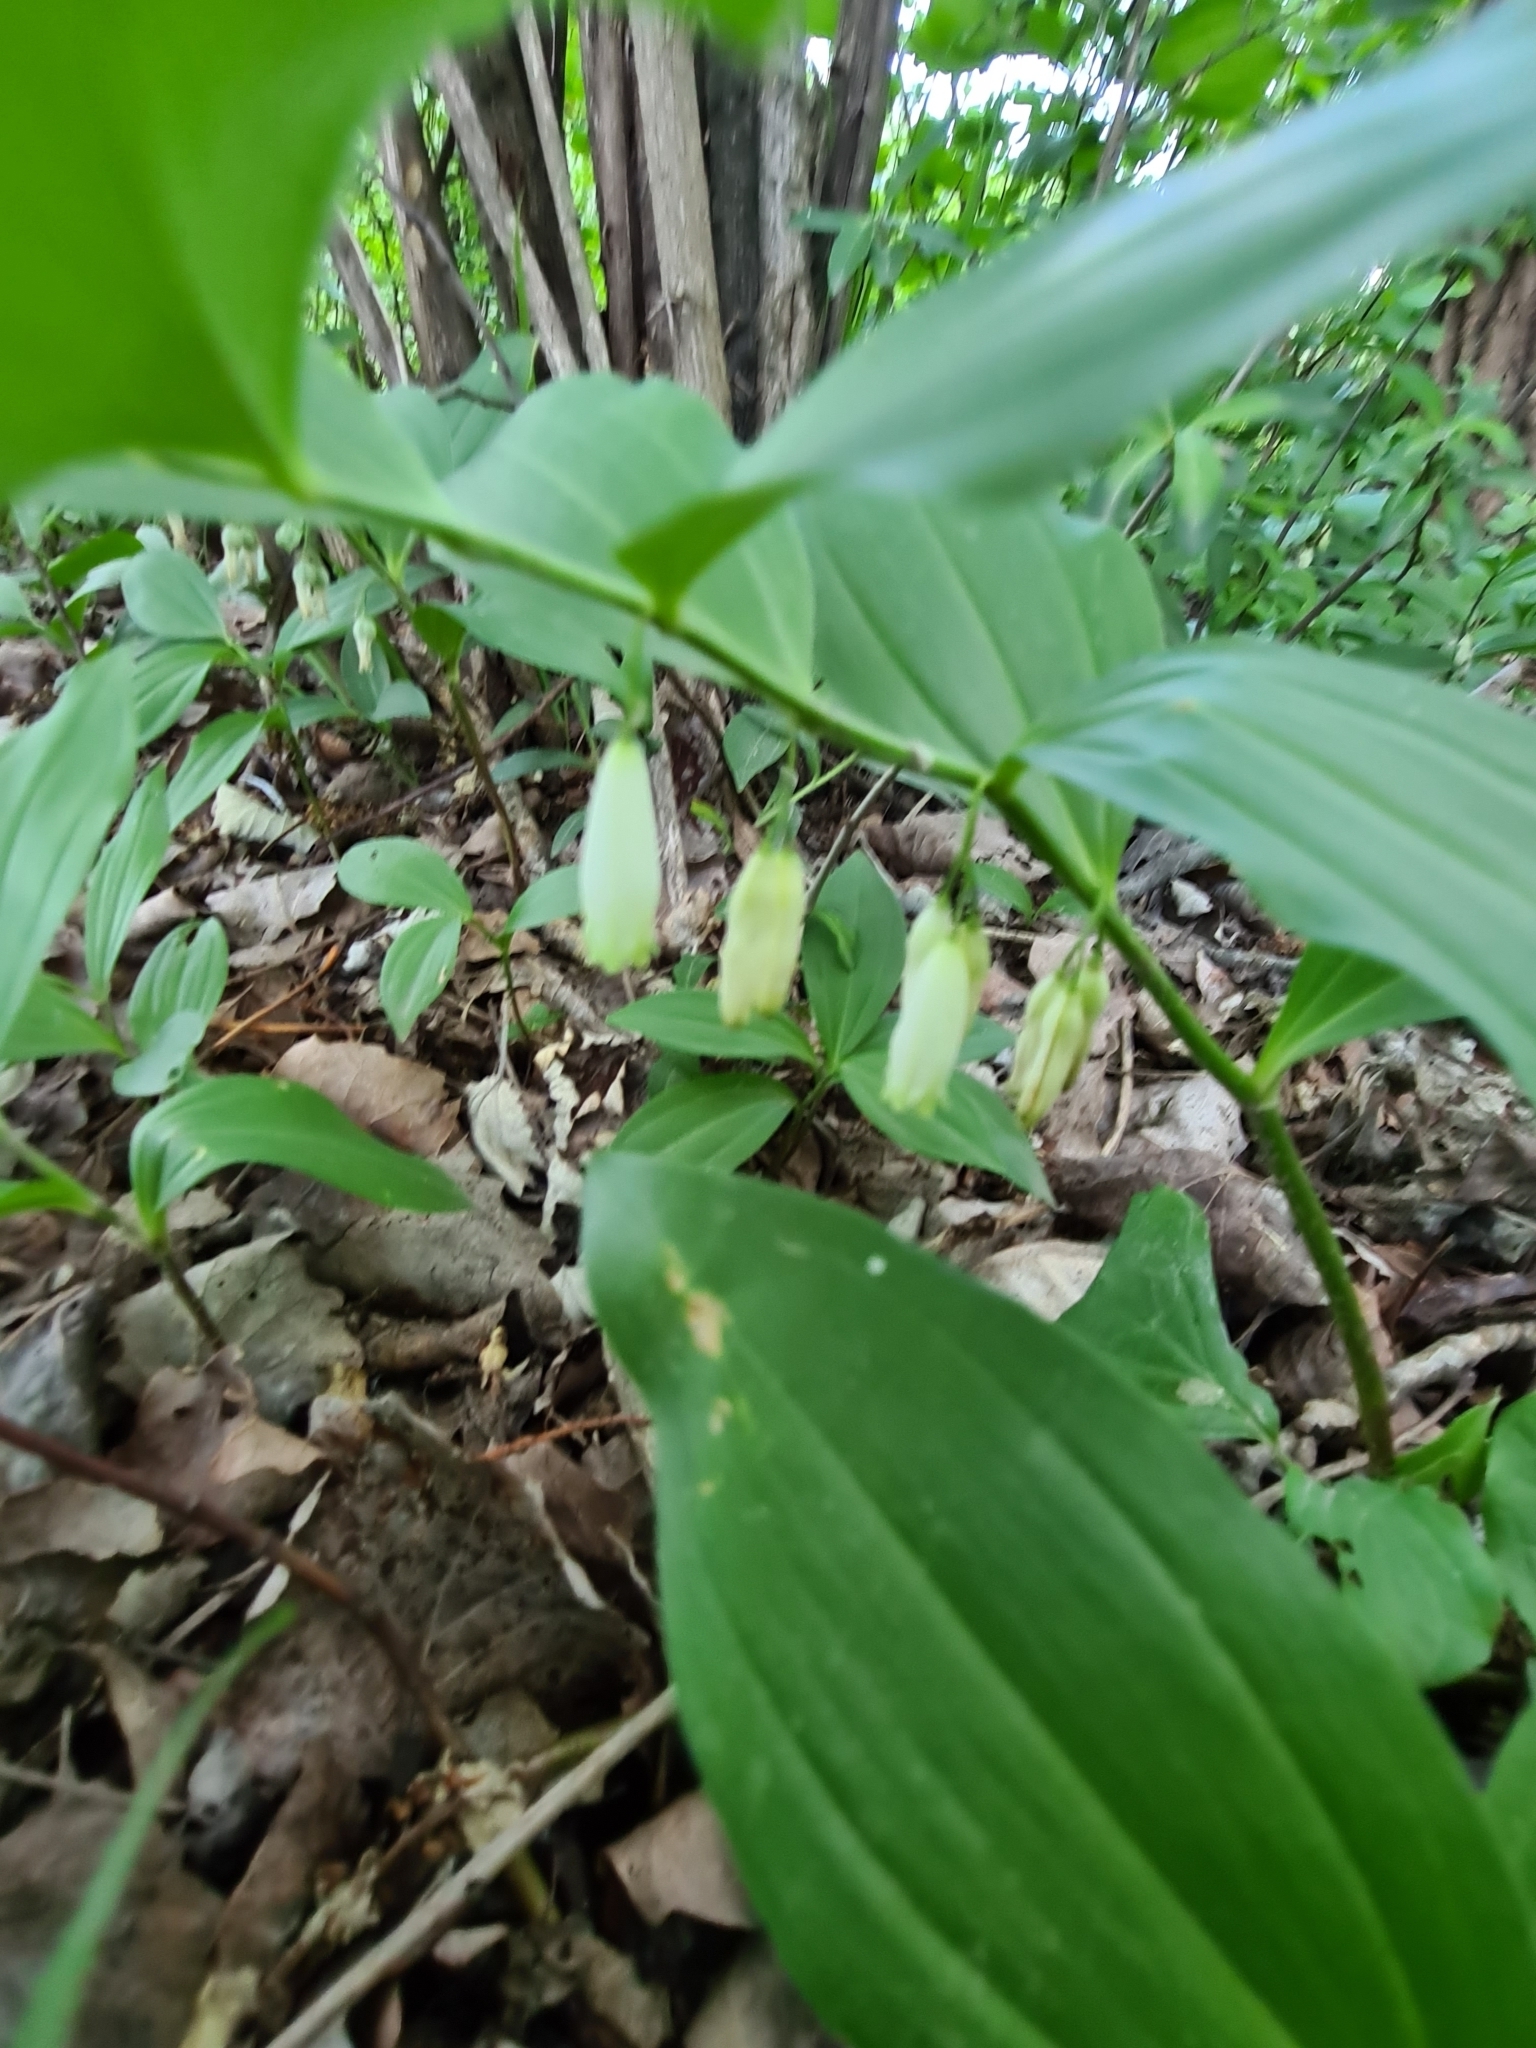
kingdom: Plantae
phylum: Tracheophyta
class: Liliopsida
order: Asparagales
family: Asparagaceae
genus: Polygonatum
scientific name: Polygonatum latifolium
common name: Broadleaf solomon's seal
